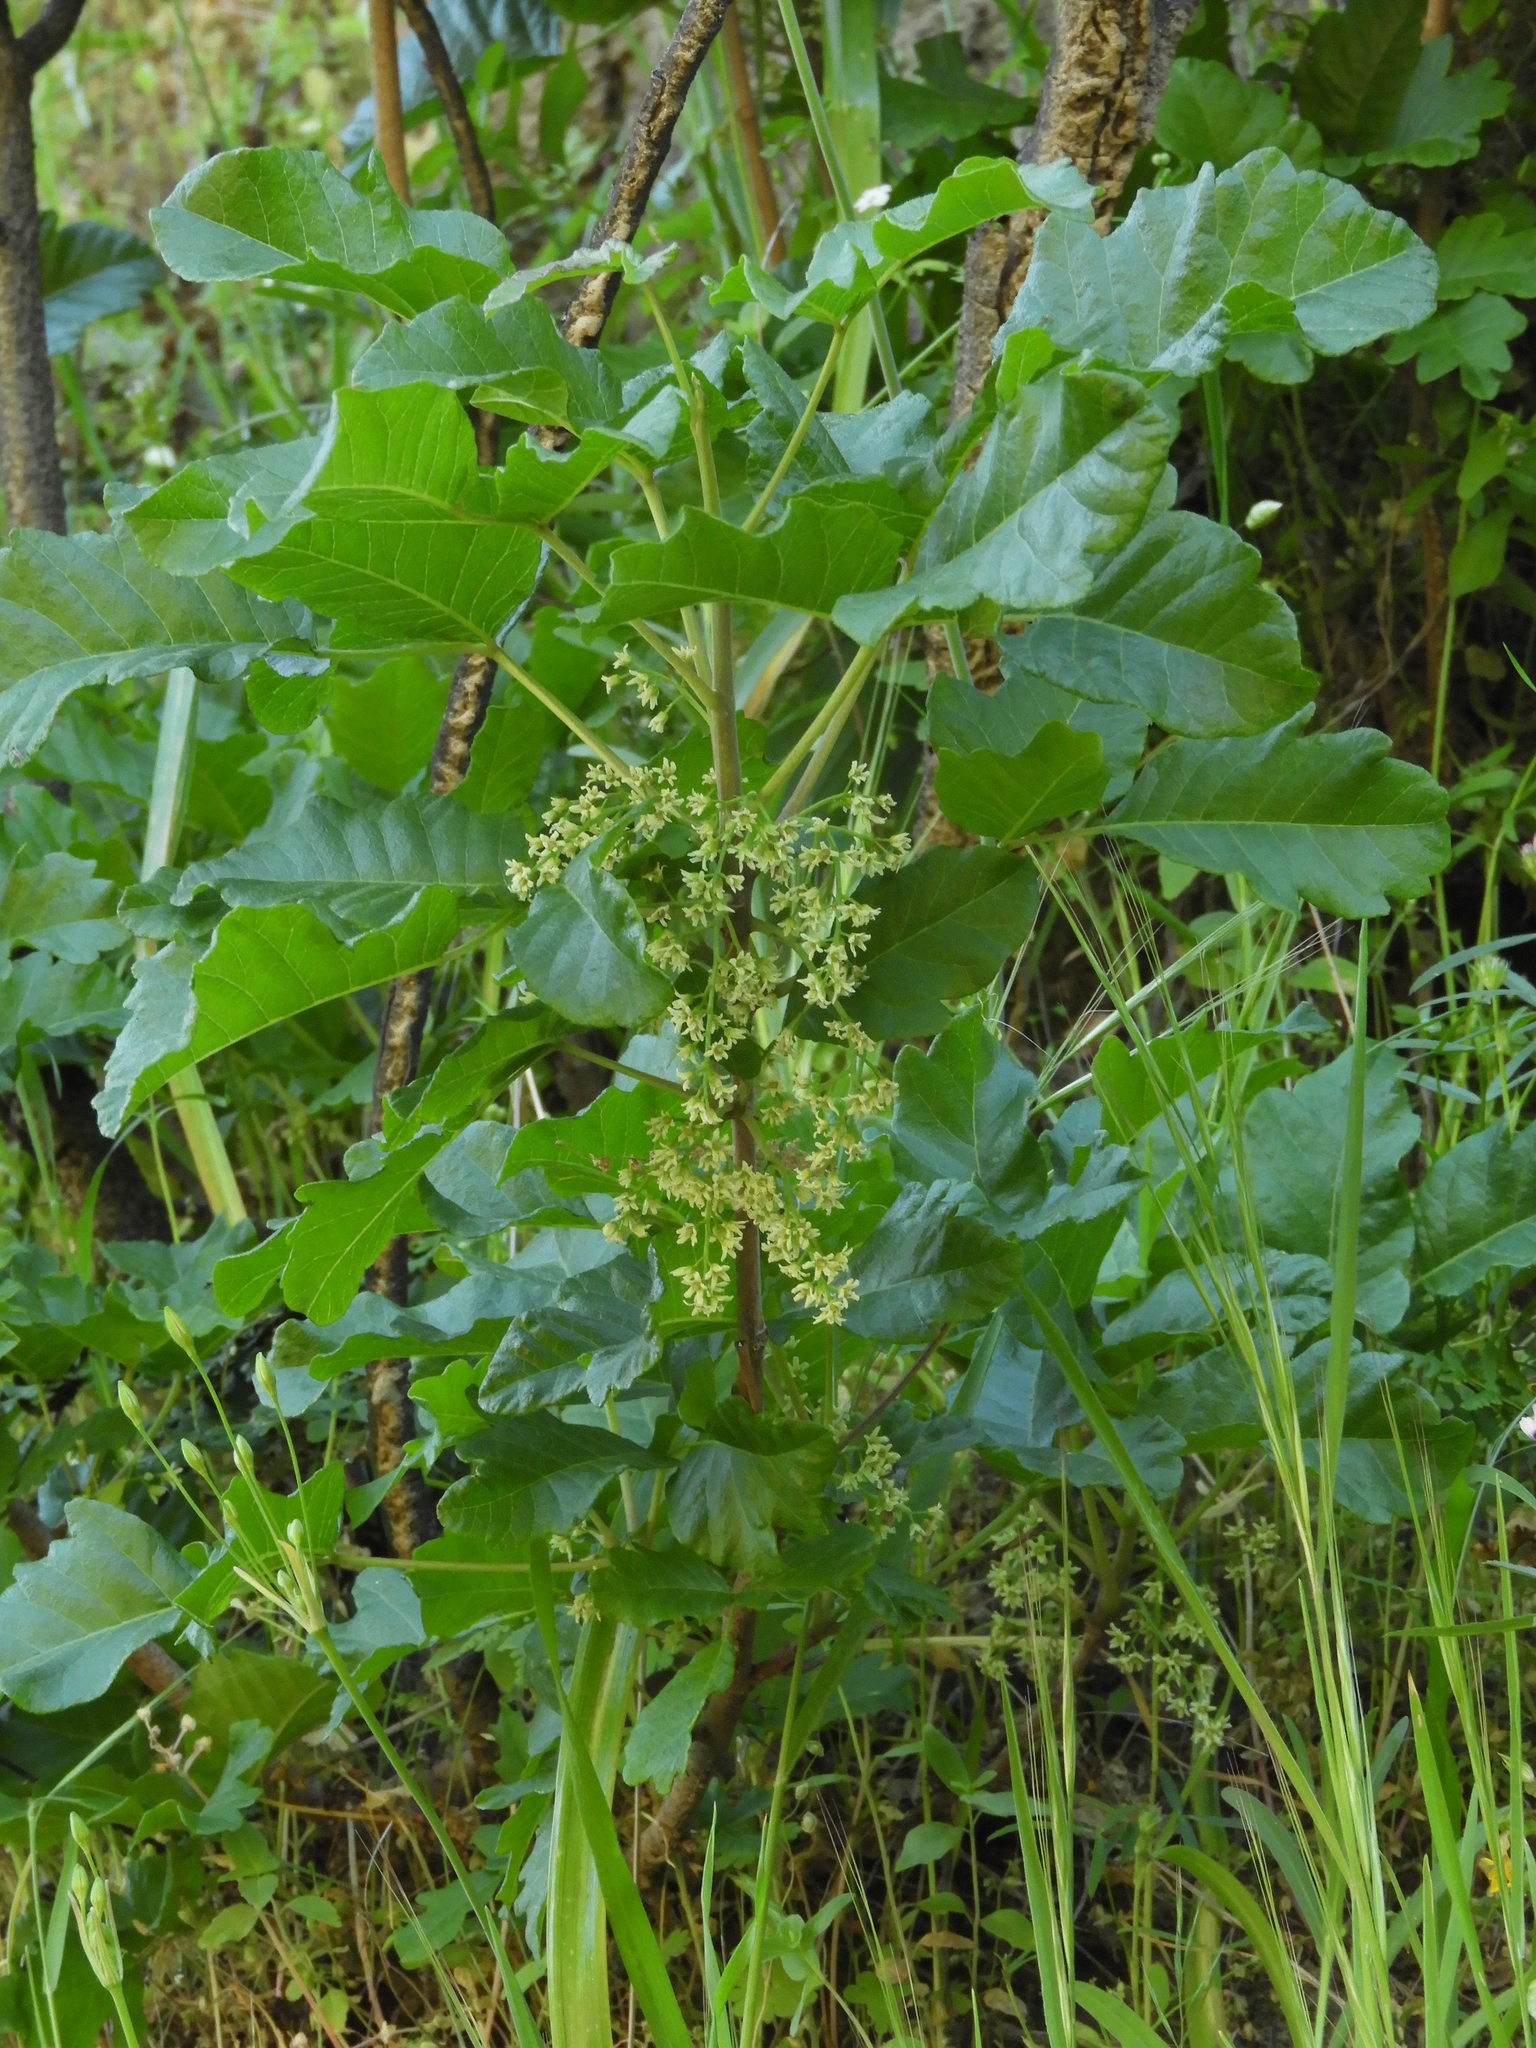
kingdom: Plantae
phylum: Tracheophyta
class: Magnoliopsida
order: Sapindales
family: Anacardiaceae
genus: Toxicodendron
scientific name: Toxicodendron diversilobum
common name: Pacific poison-oak
